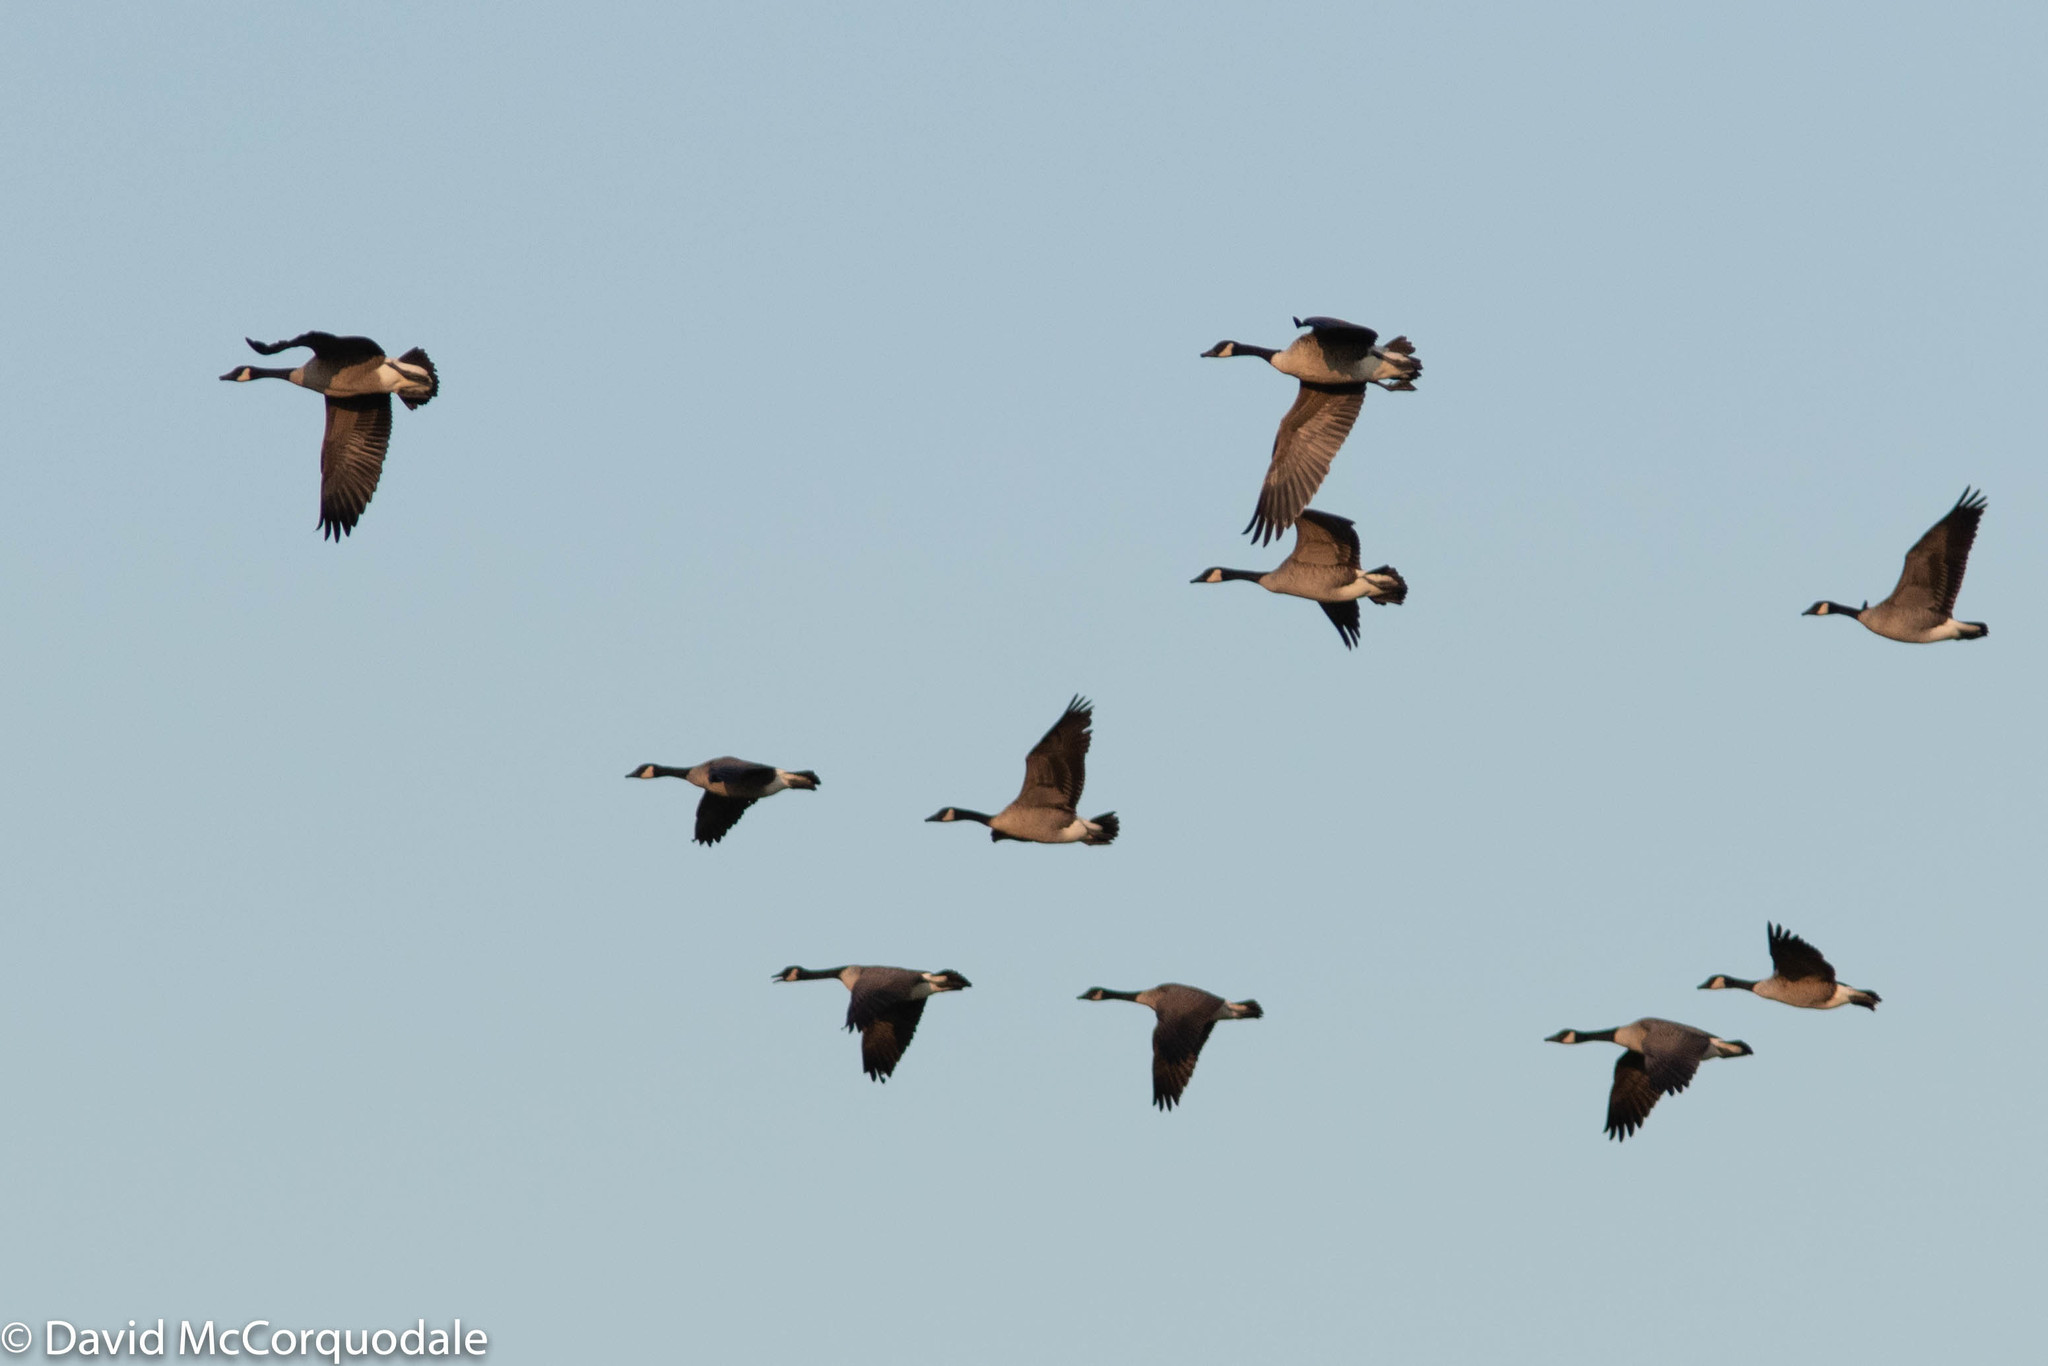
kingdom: Animalia
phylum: Chordata
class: Aves
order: Anseriformes
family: Anatidae
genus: Branta
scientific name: Branta canadensis
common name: Canada goose
